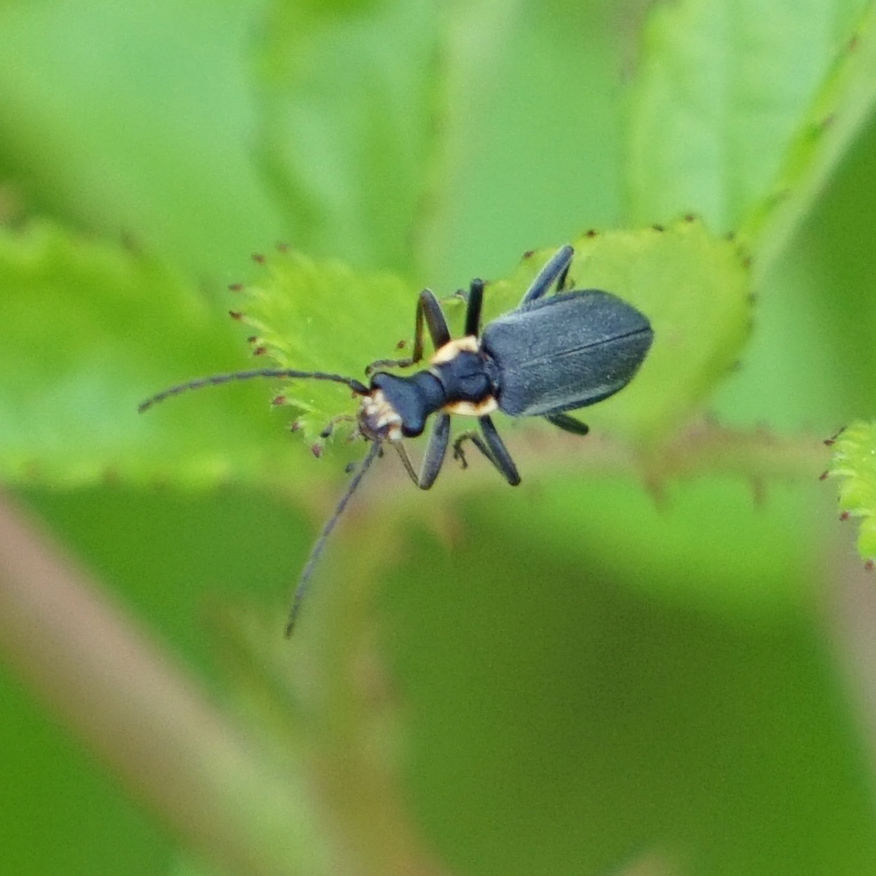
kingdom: Animalia
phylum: Arthropoda
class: Insecta
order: Coleoptera
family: Cantharidae
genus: Podabrus
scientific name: Podabrus rugosulus
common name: Wrinkled soldier beetle
